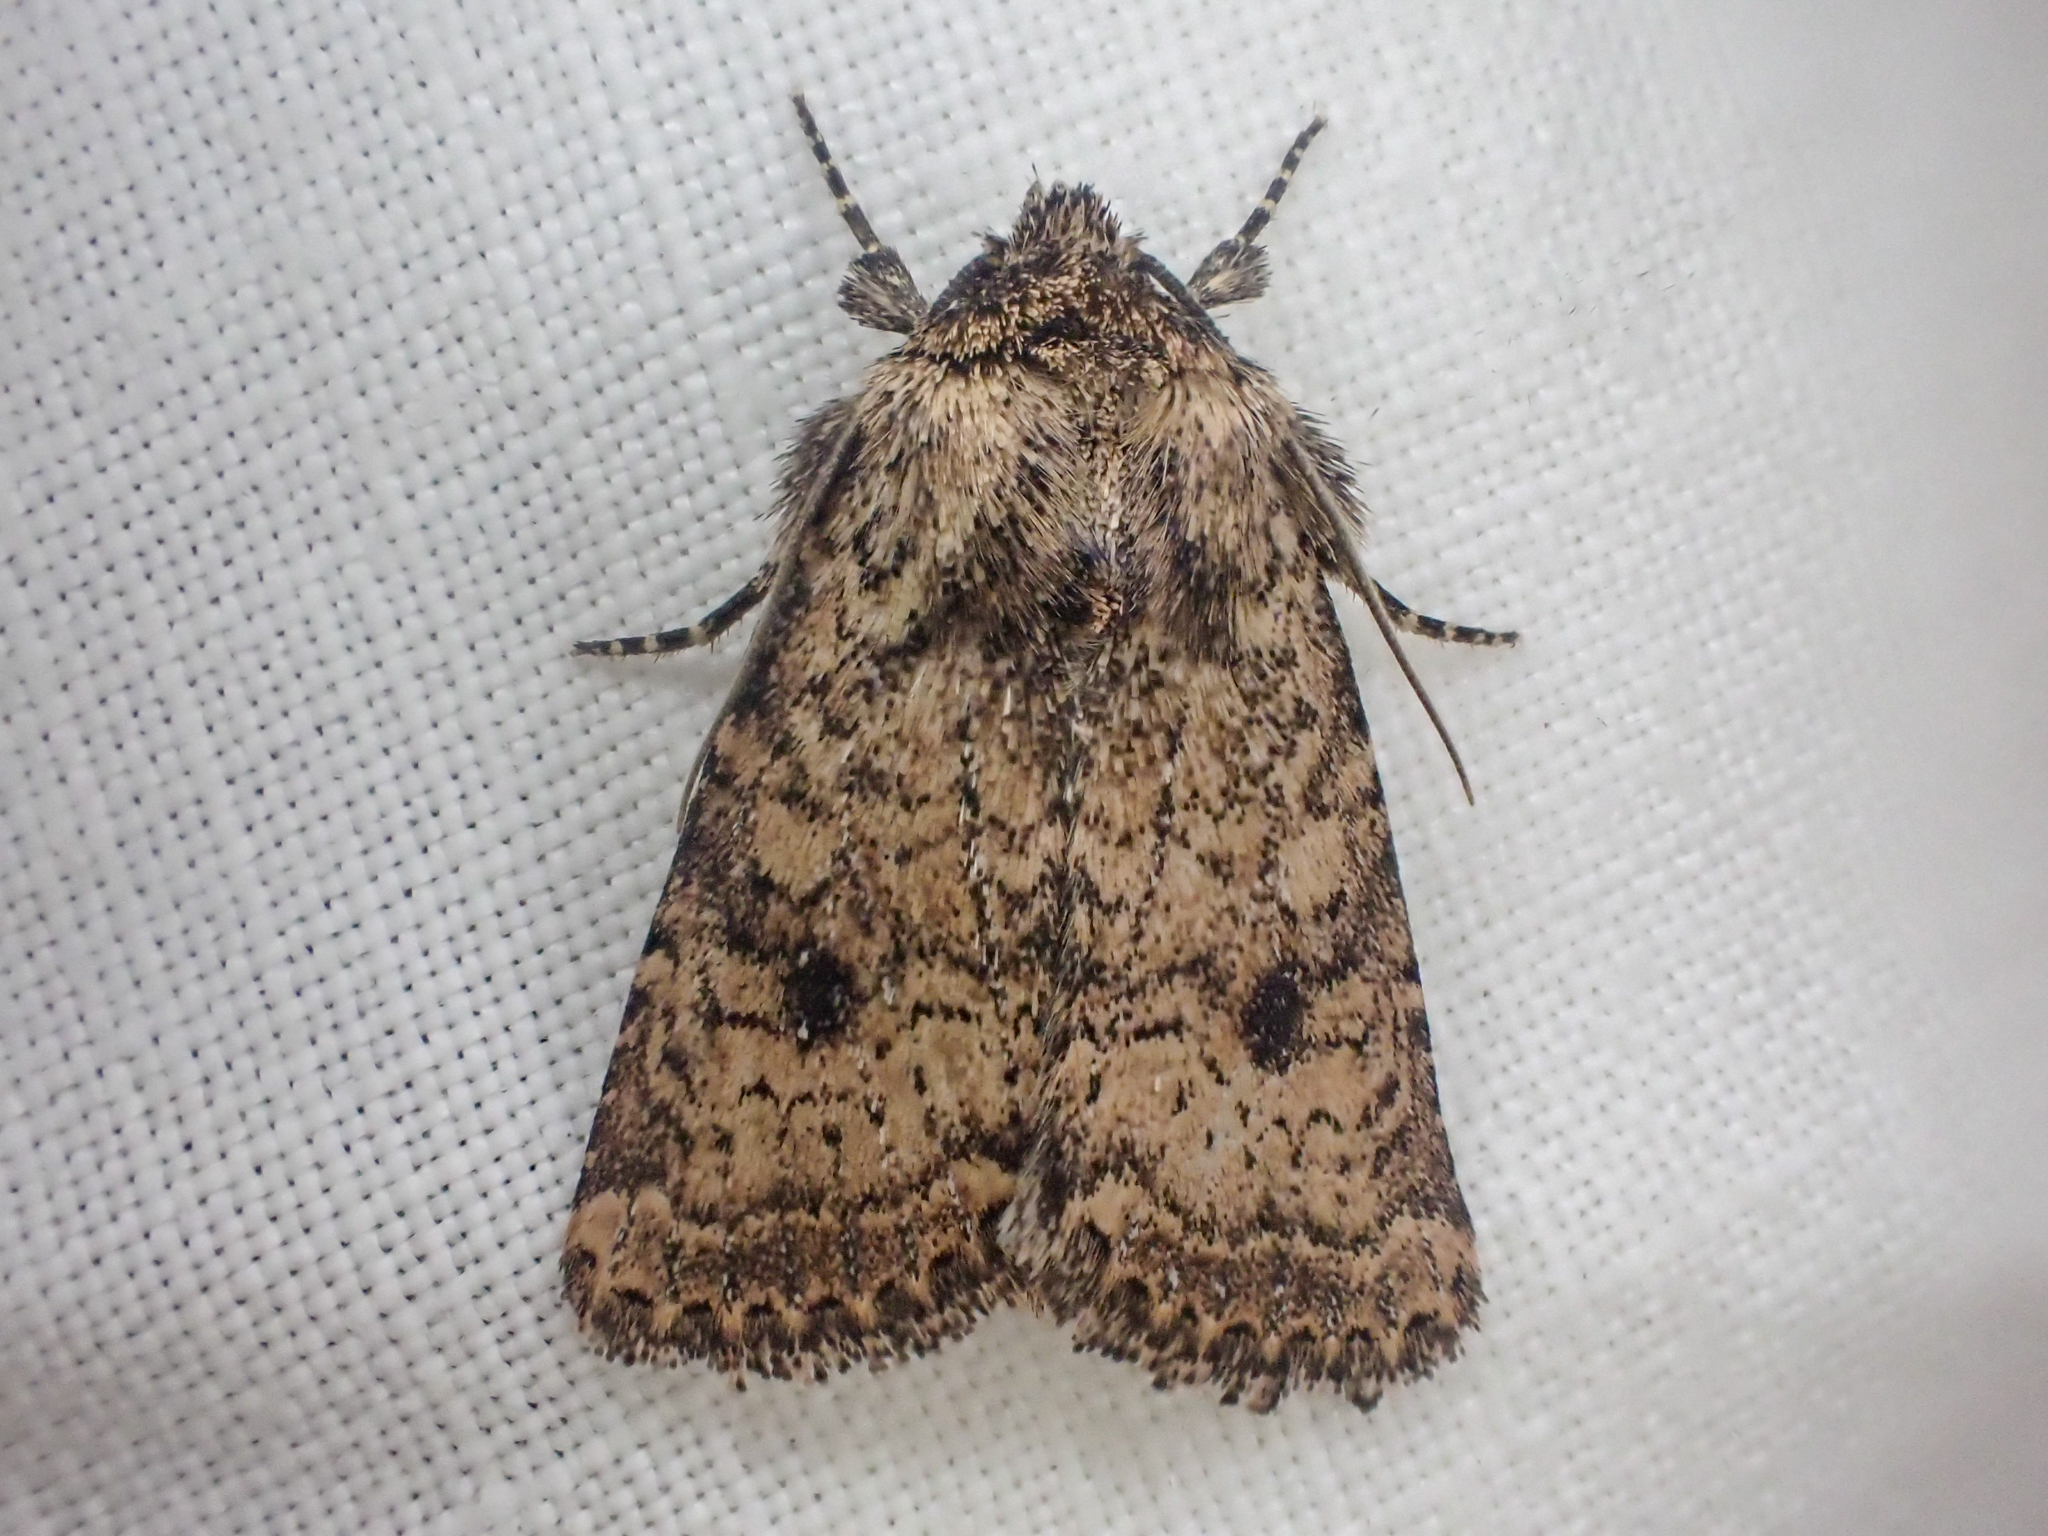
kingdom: Animalia
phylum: Arthropoda
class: Insecta
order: Lepidoptera
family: Noctuidae
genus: Homorthodes
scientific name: Homorthodes hanhami
